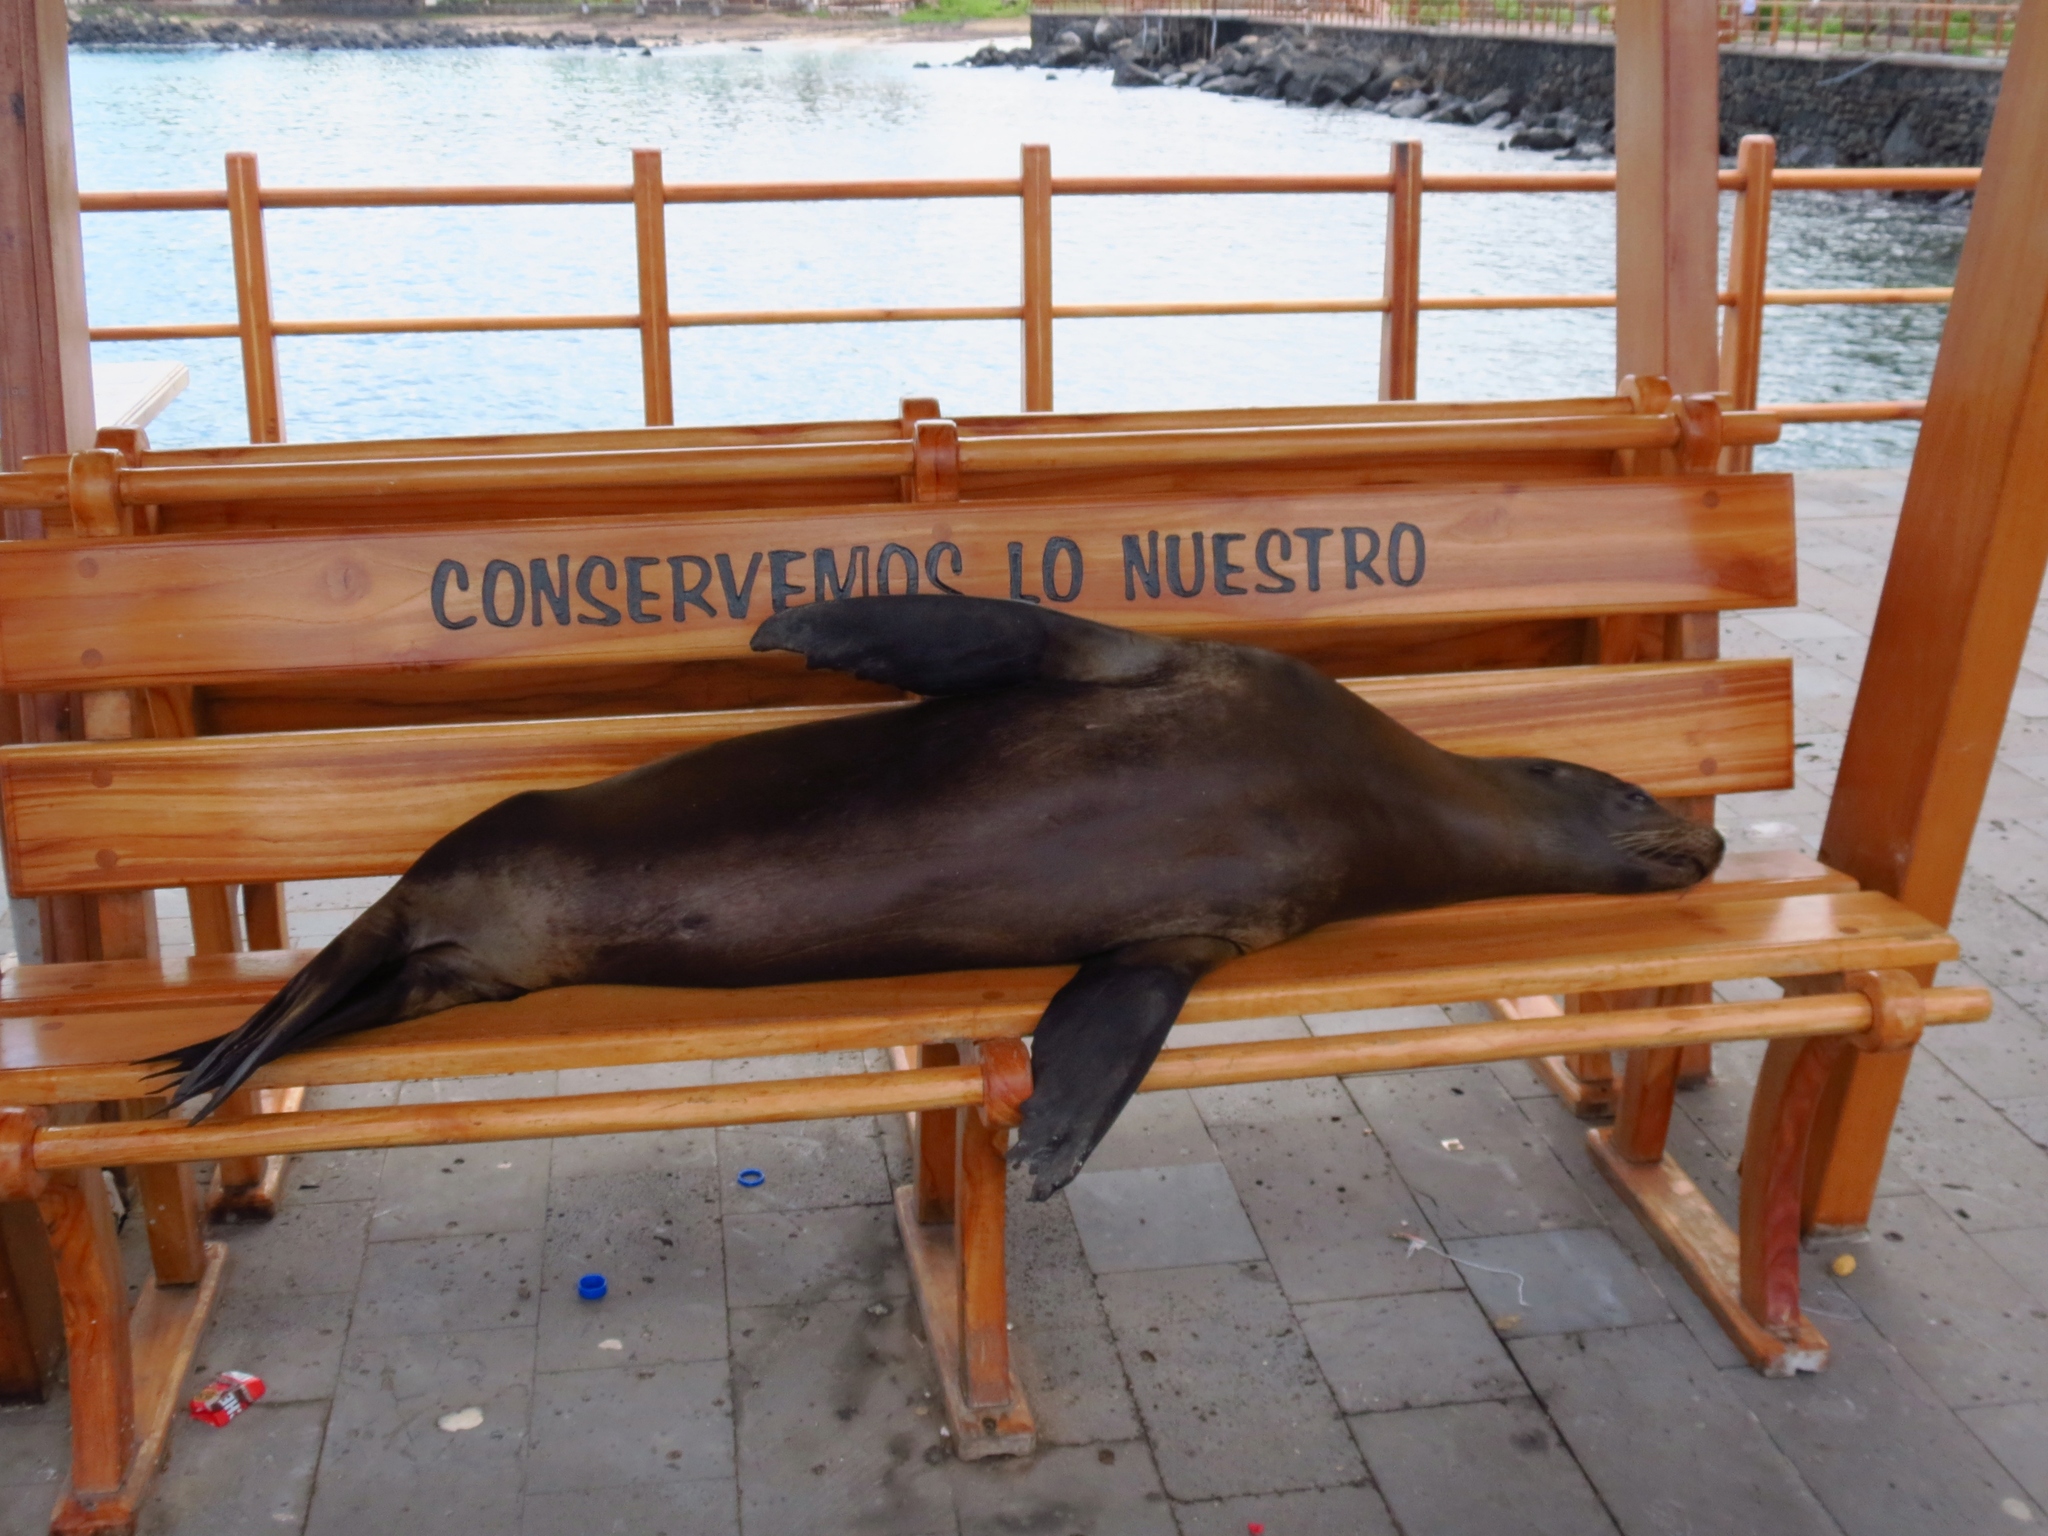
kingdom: Animalia
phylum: Chordata
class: Mammalia
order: Carnivora
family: Otariidae
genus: Zalophus
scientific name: Zalophus wollebaeki
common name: Galapagos sea lion
